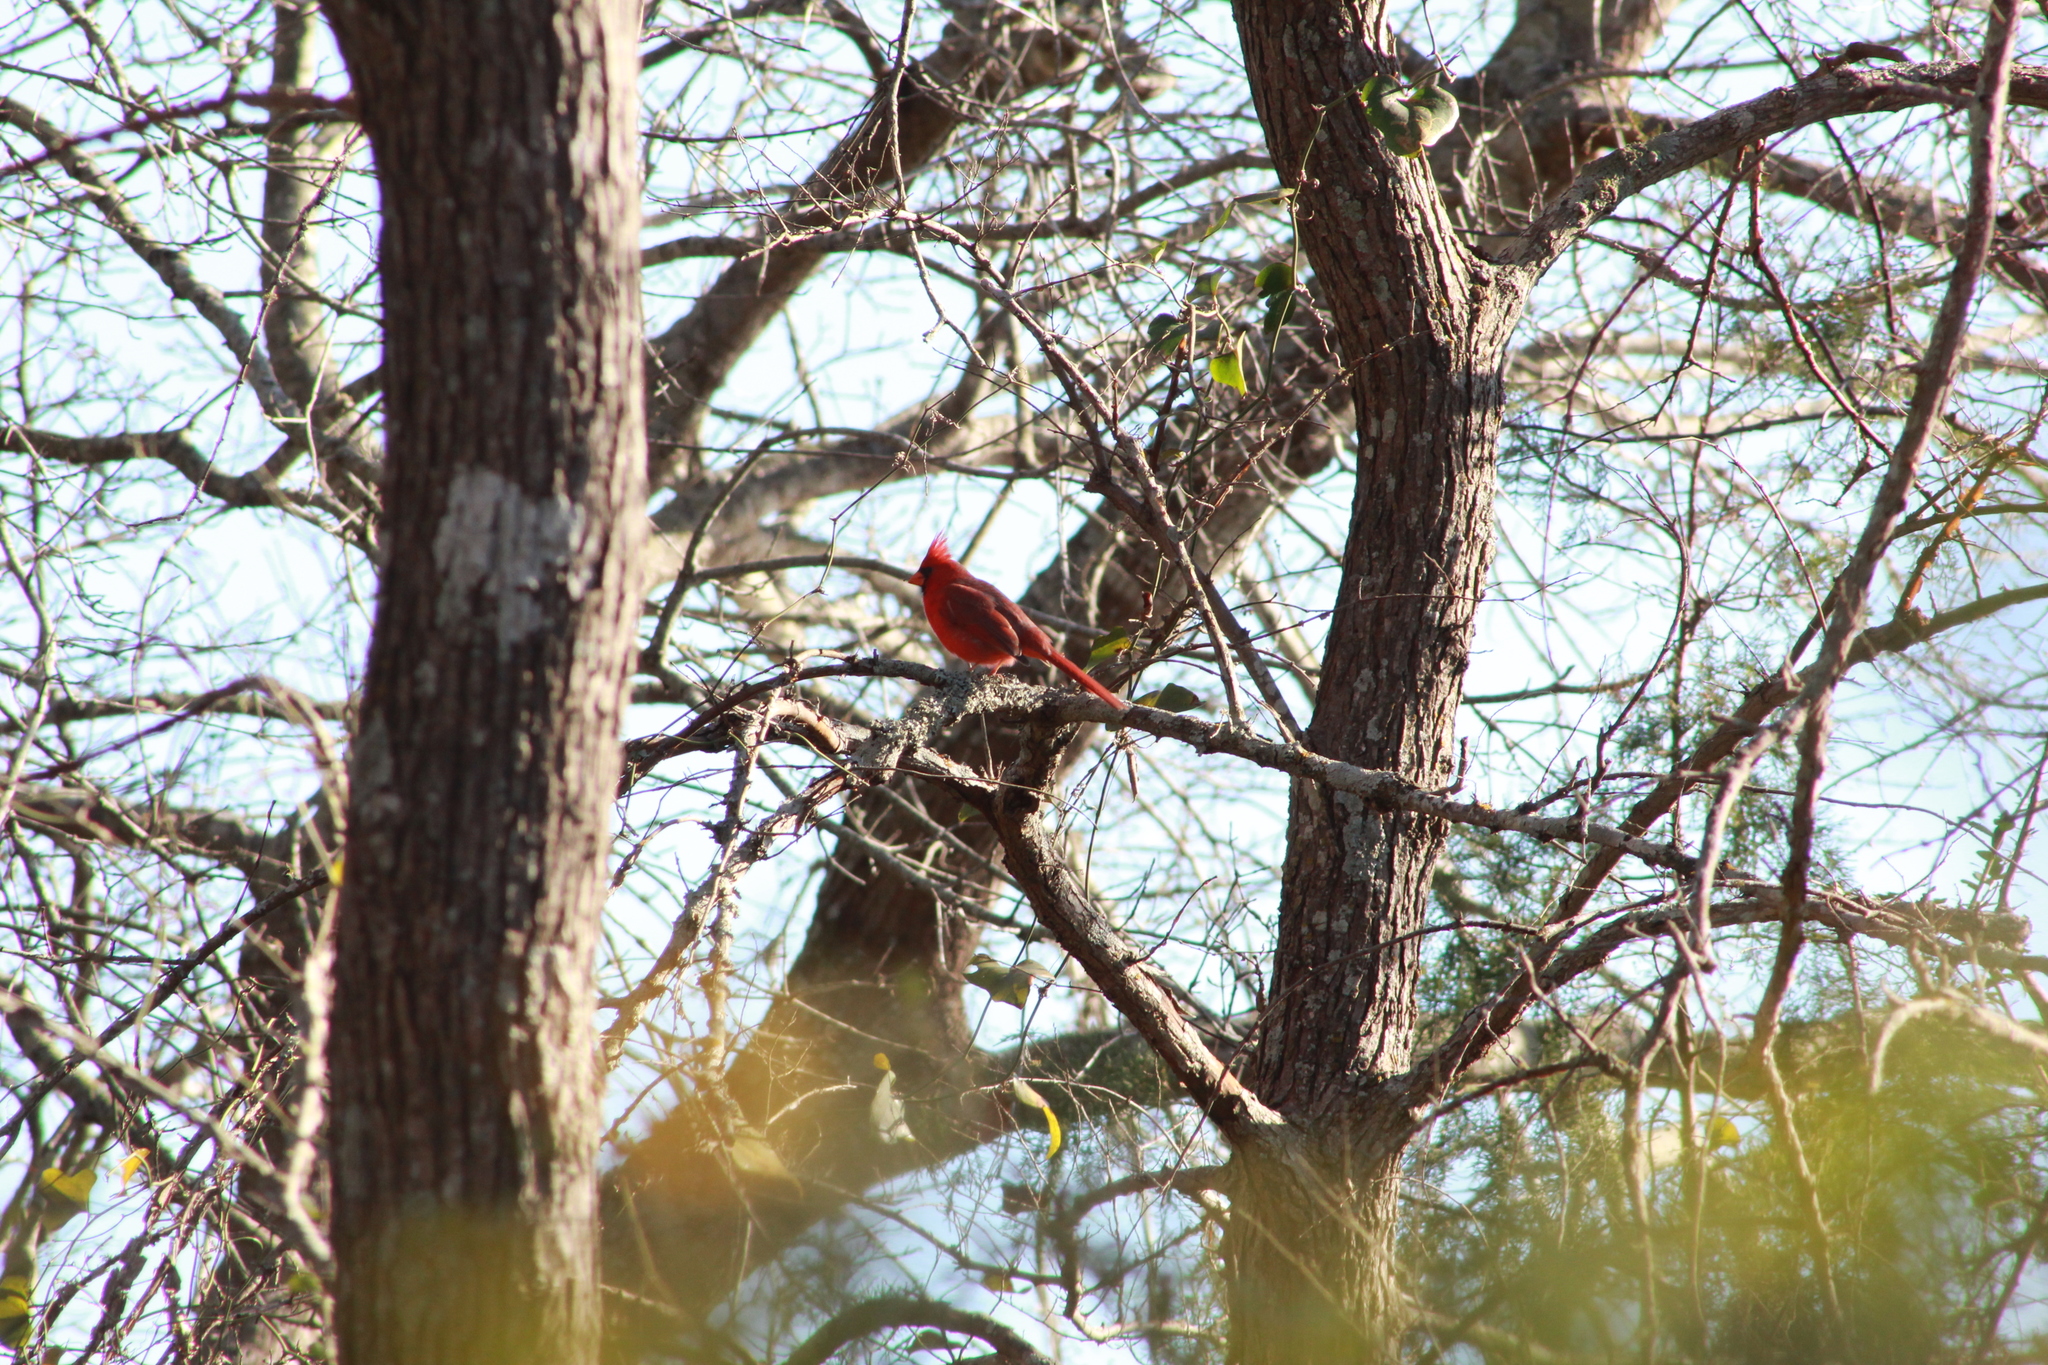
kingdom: Animalia
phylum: Chordata
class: Aves
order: Passeriformes
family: Cardinalidae
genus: Cardinalis
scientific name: Cardinalis cardinalis
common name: Northern cardinal
